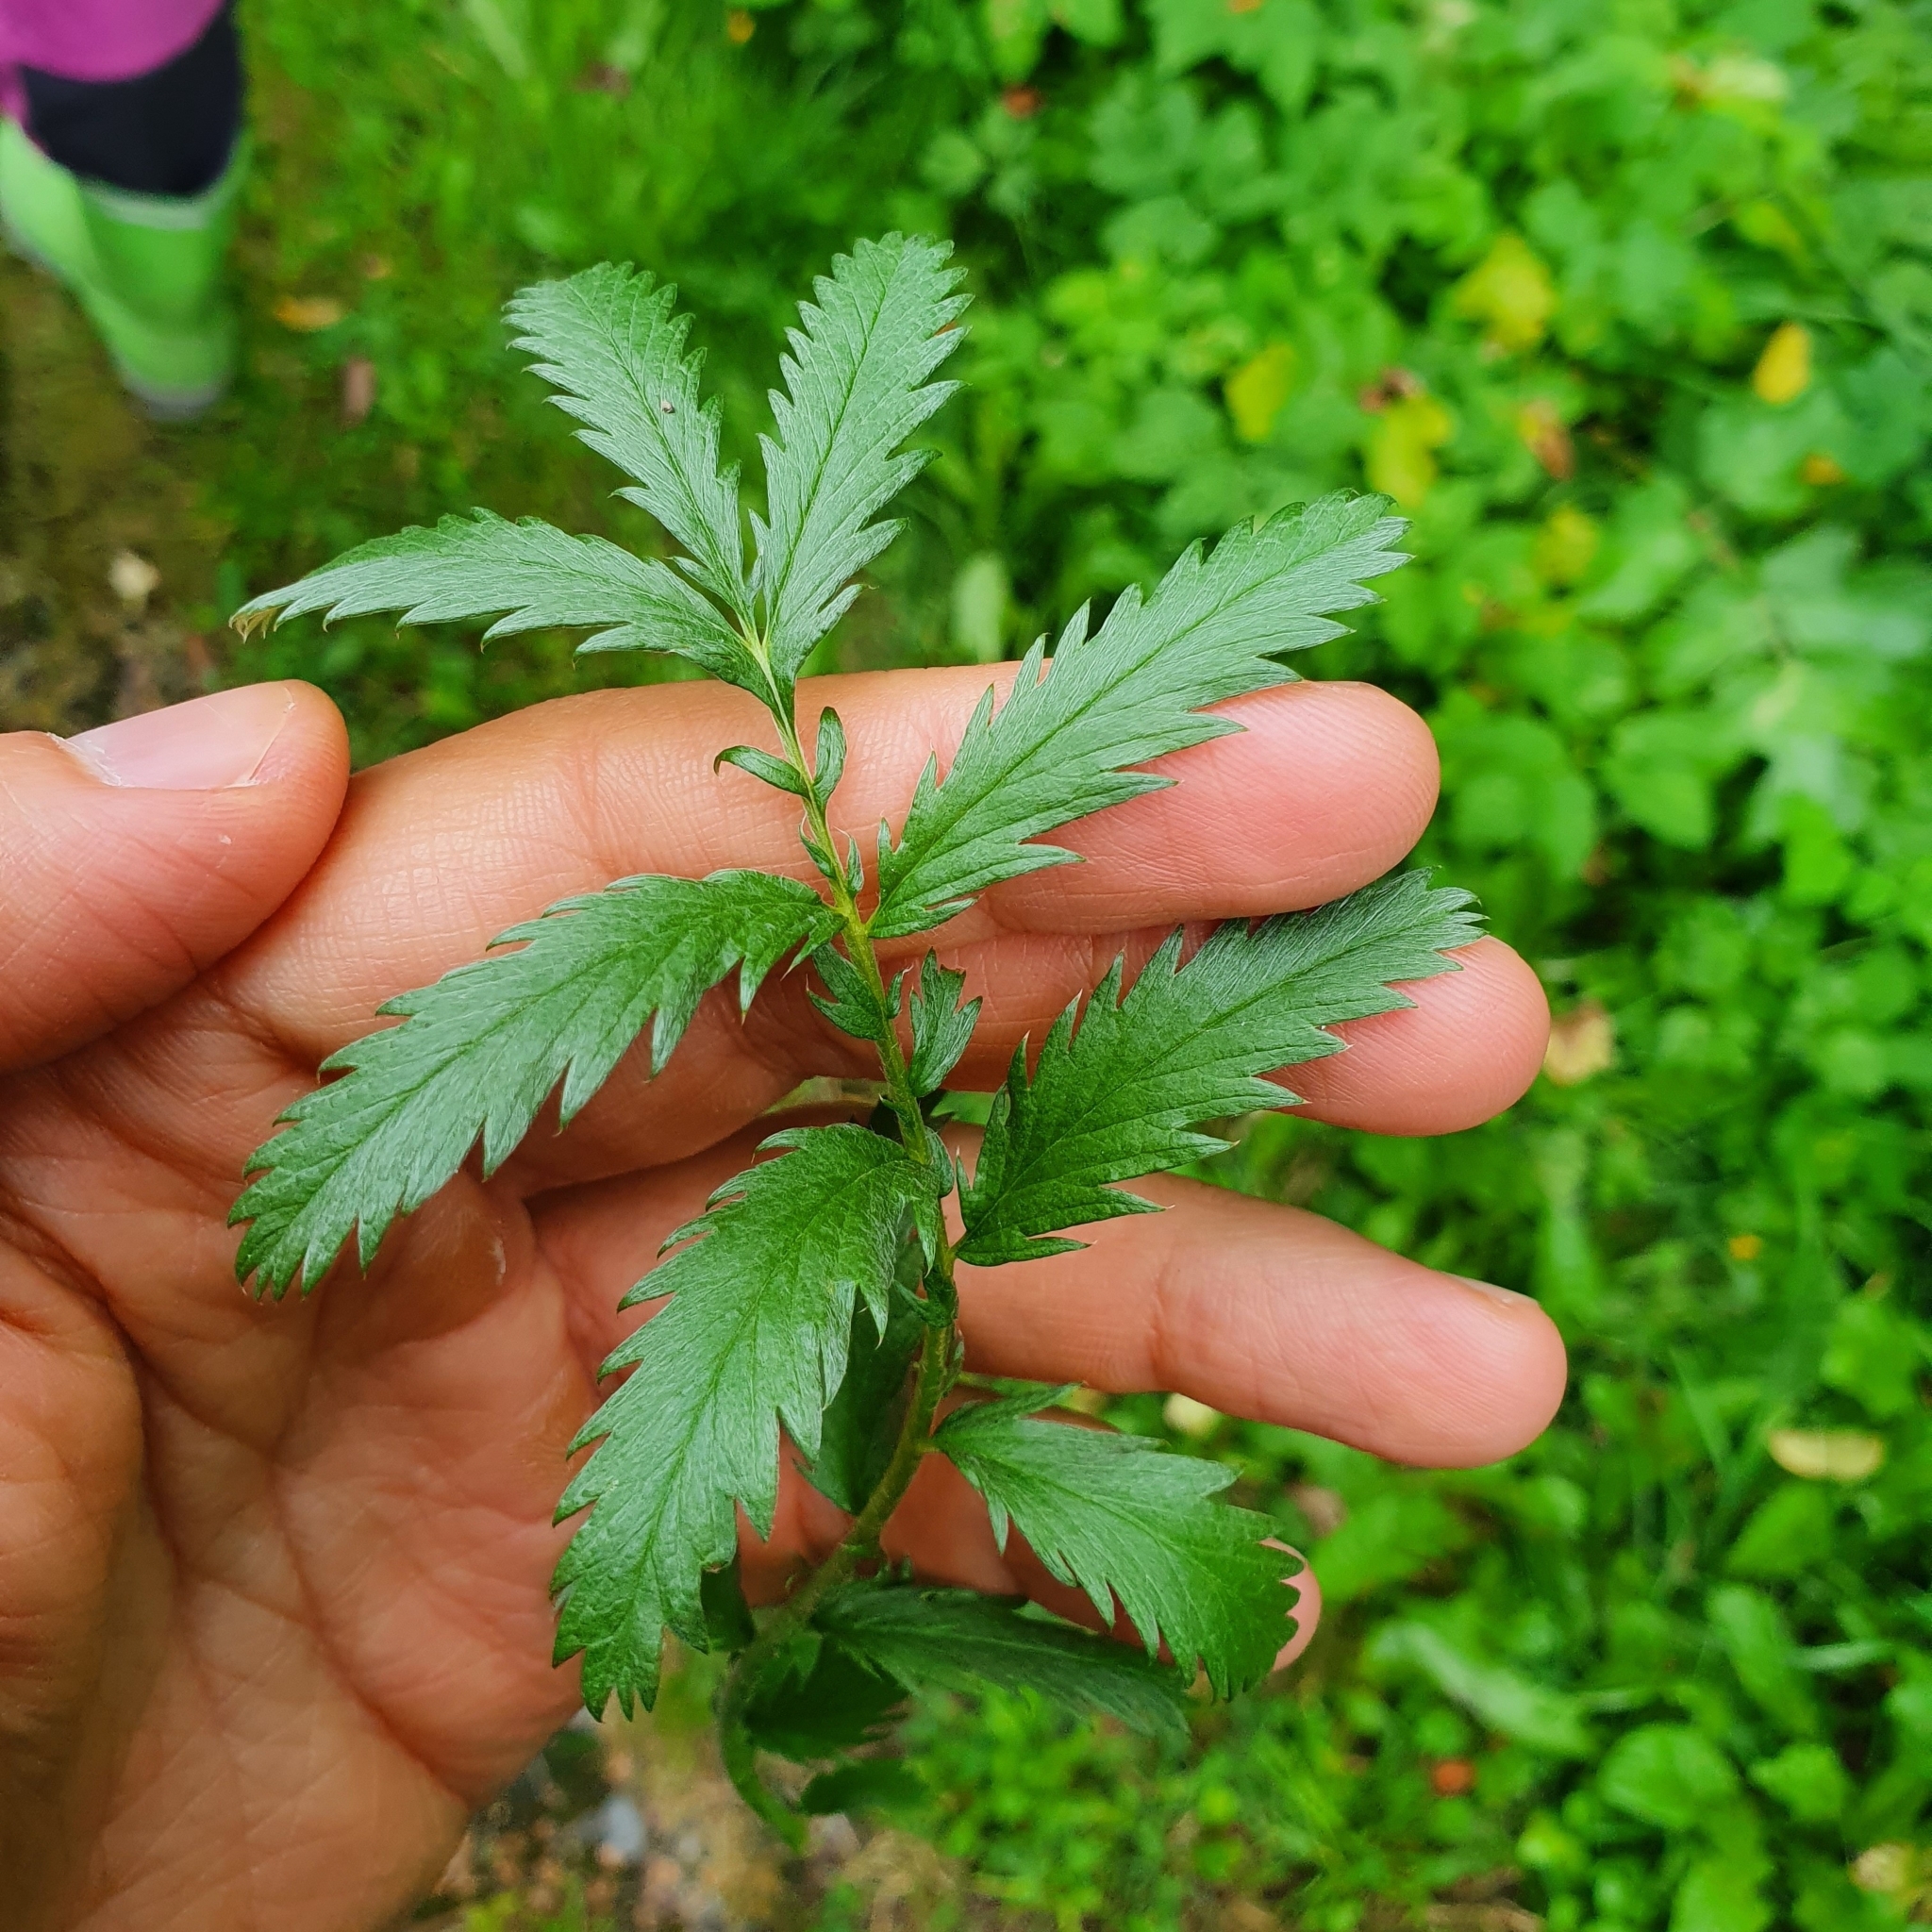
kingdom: Plantae
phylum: Tracheophyta
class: Magnoliopsida
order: Rosales
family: Rosaceae
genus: Argentina
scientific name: Argentina anserina
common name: Common silverweed
